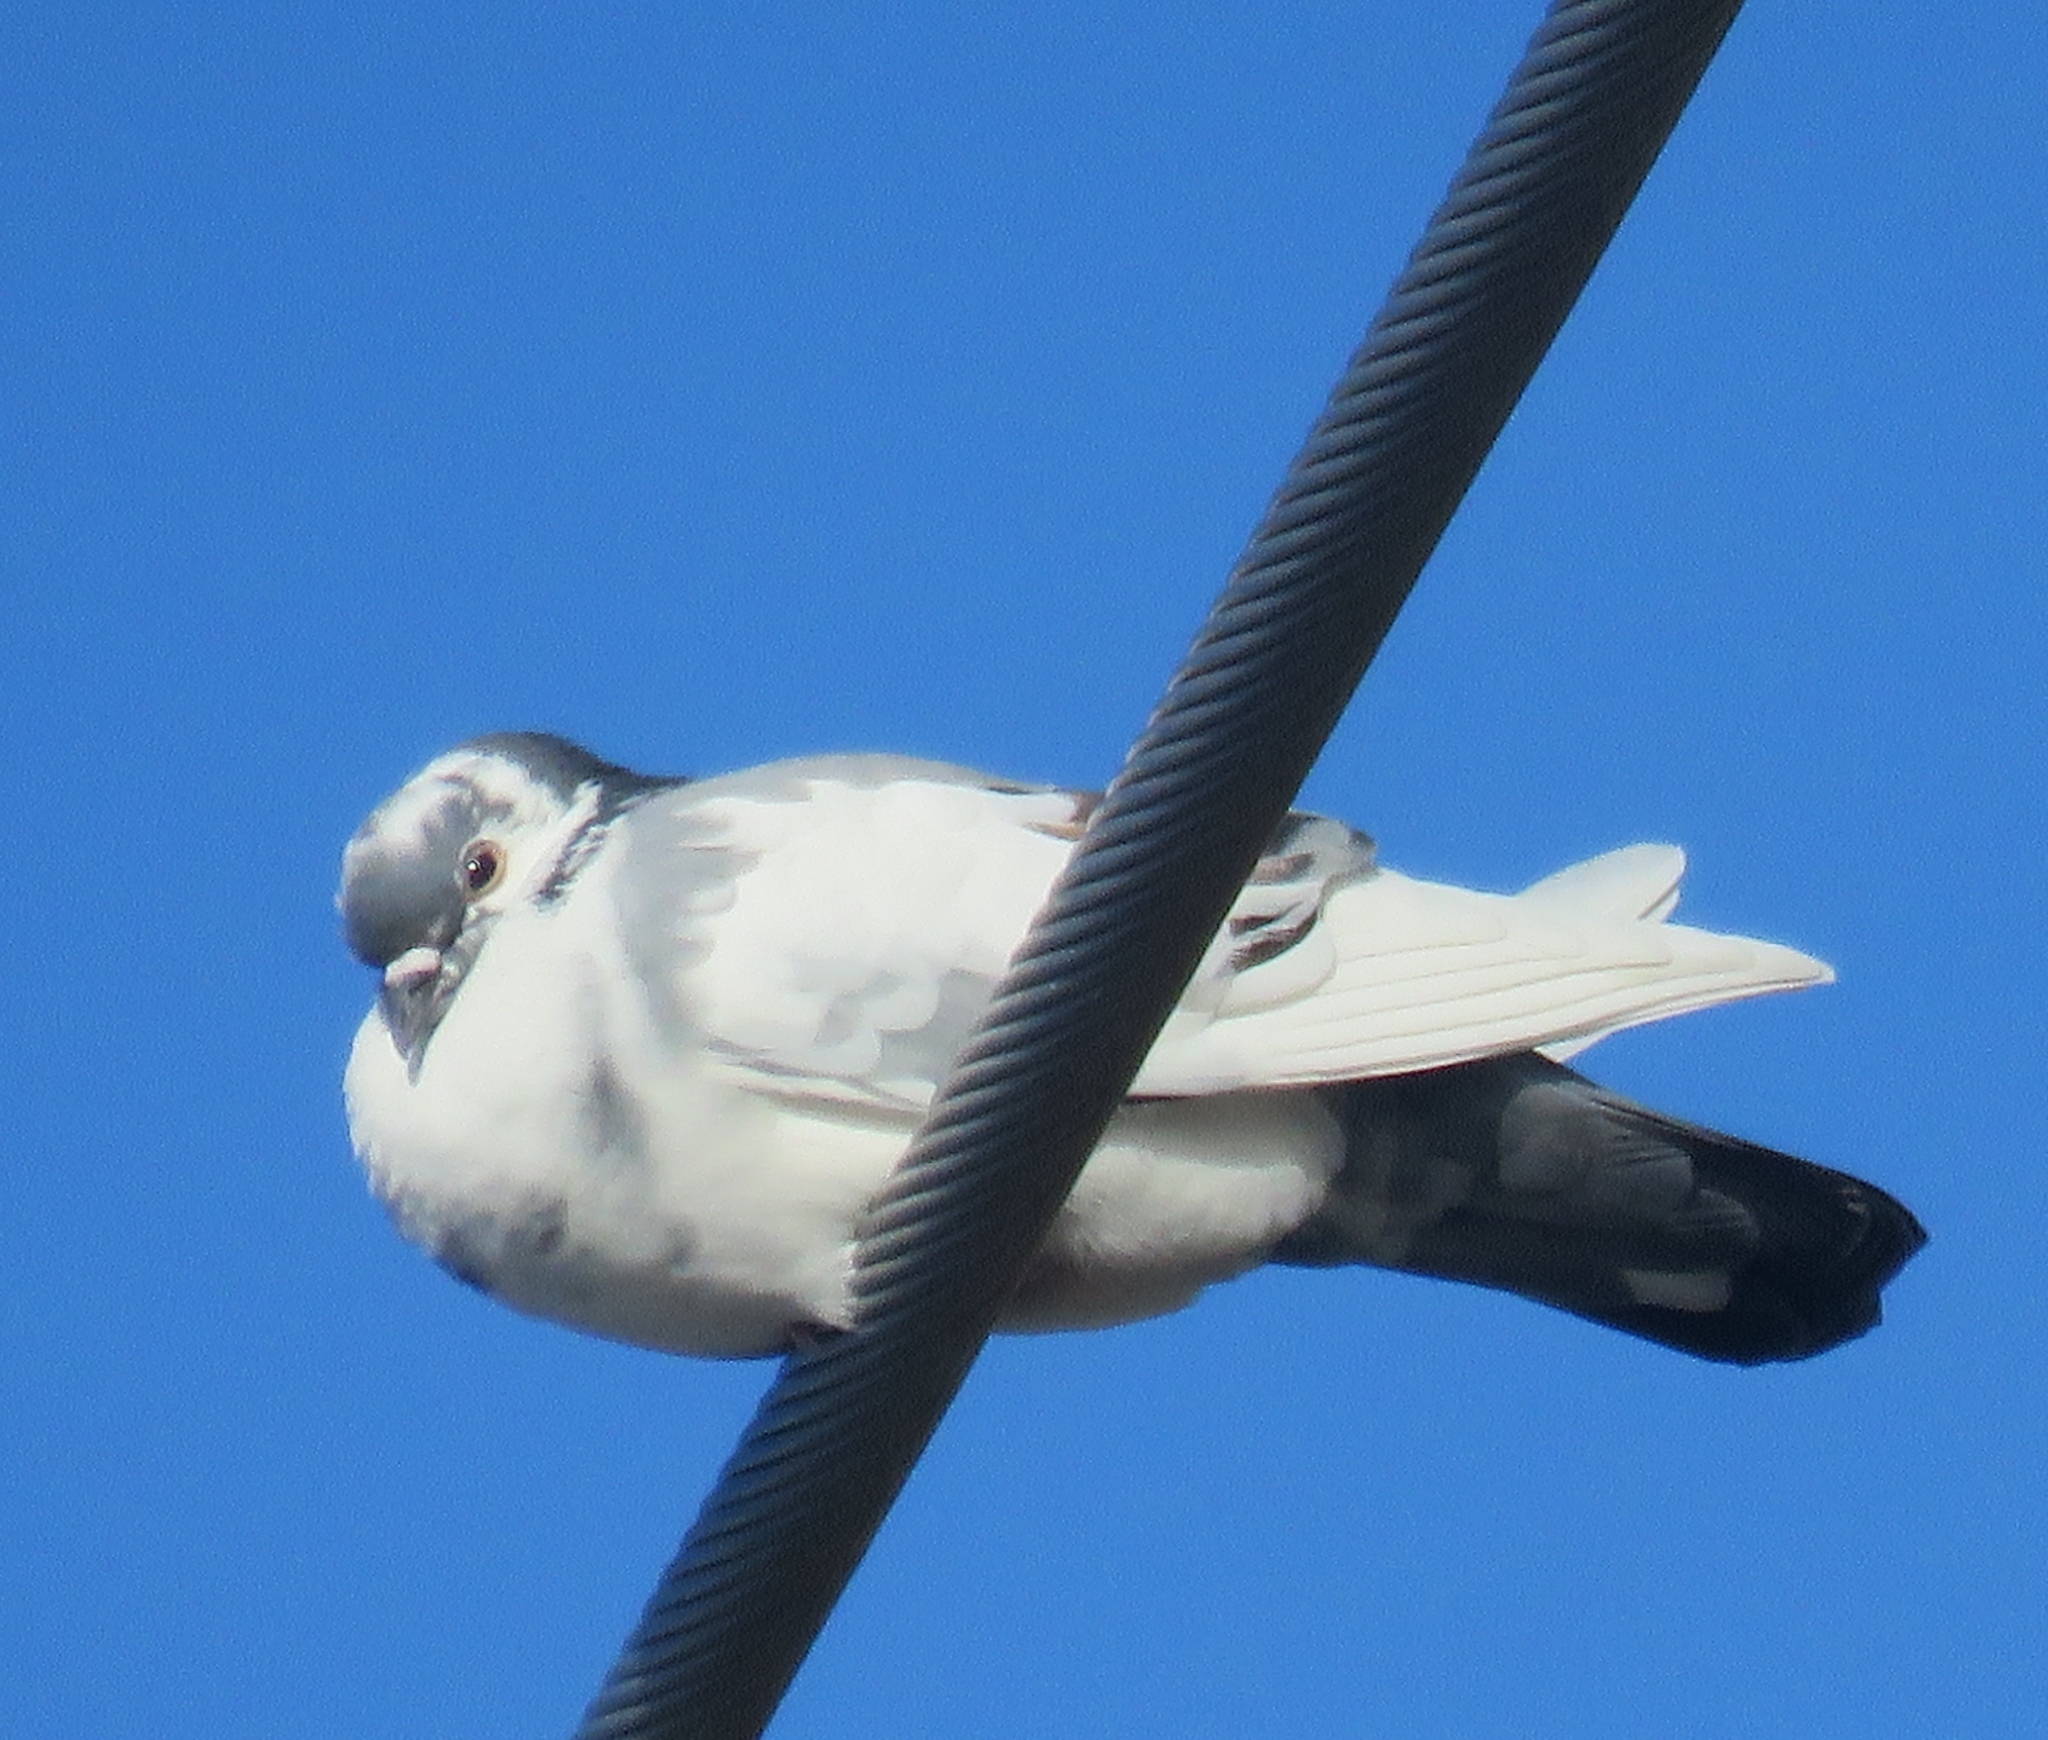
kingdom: Animalia
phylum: Chordata
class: Aves
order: Columbiformes
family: Columbidae
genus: Columba
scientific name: Columba livia
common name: Rock pigeon
